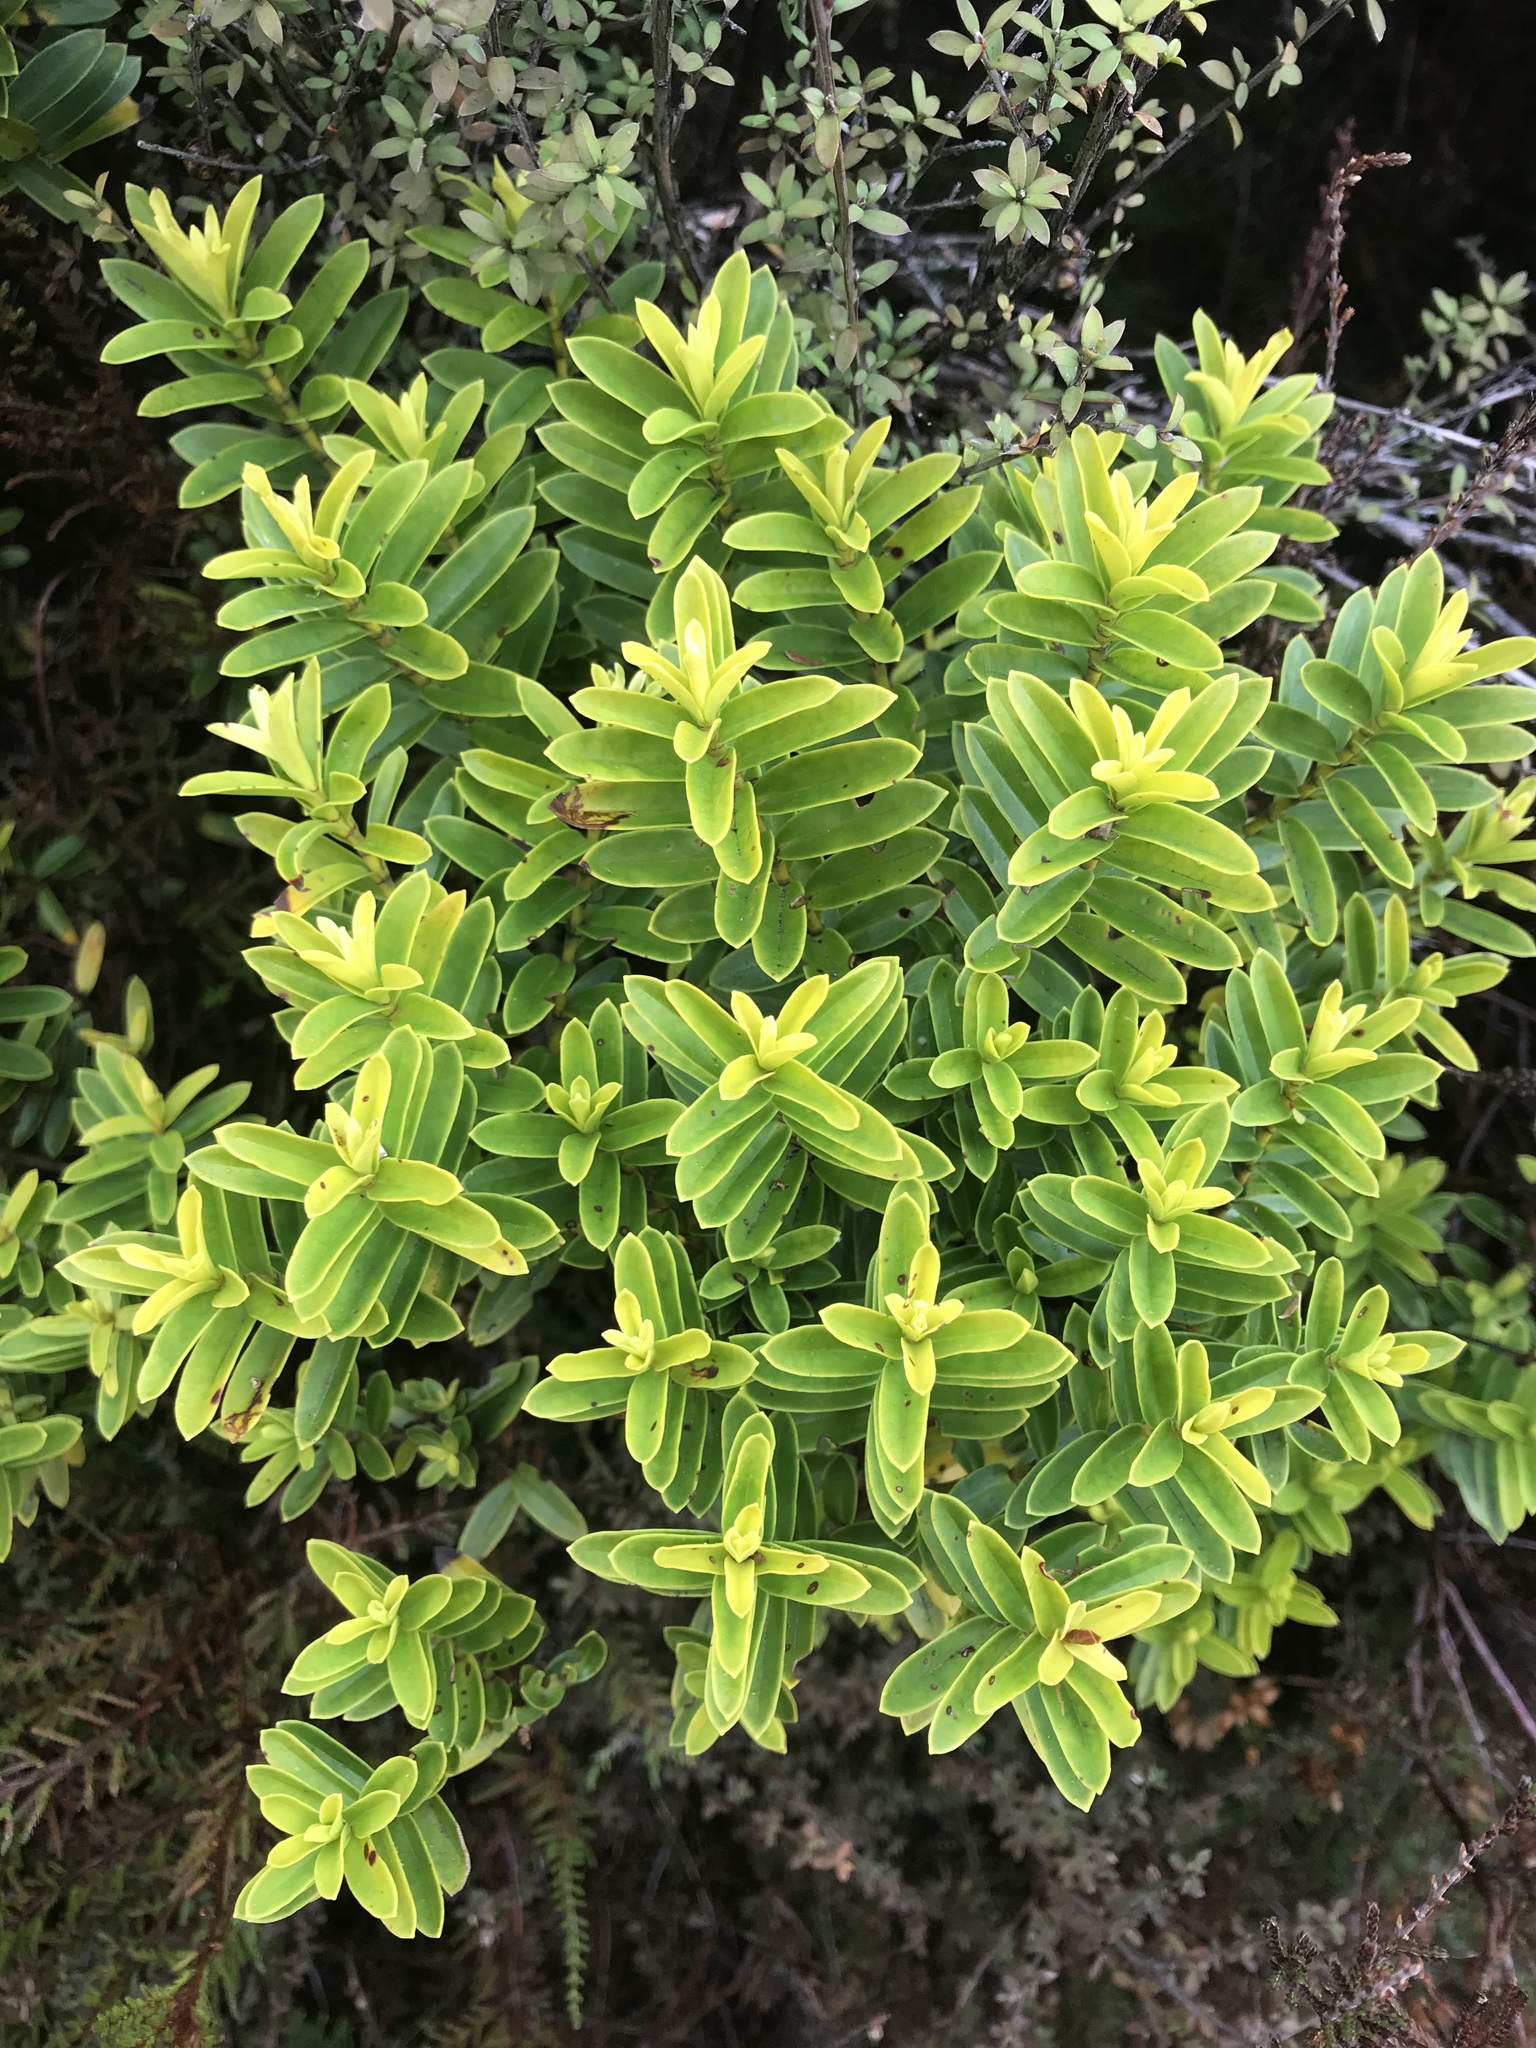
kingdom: Plantae
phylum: Tracheophyta
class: Magnoliopsida
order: Lamiales
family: Plantaginaceae
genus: Veronica
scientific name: Veronica venustula
